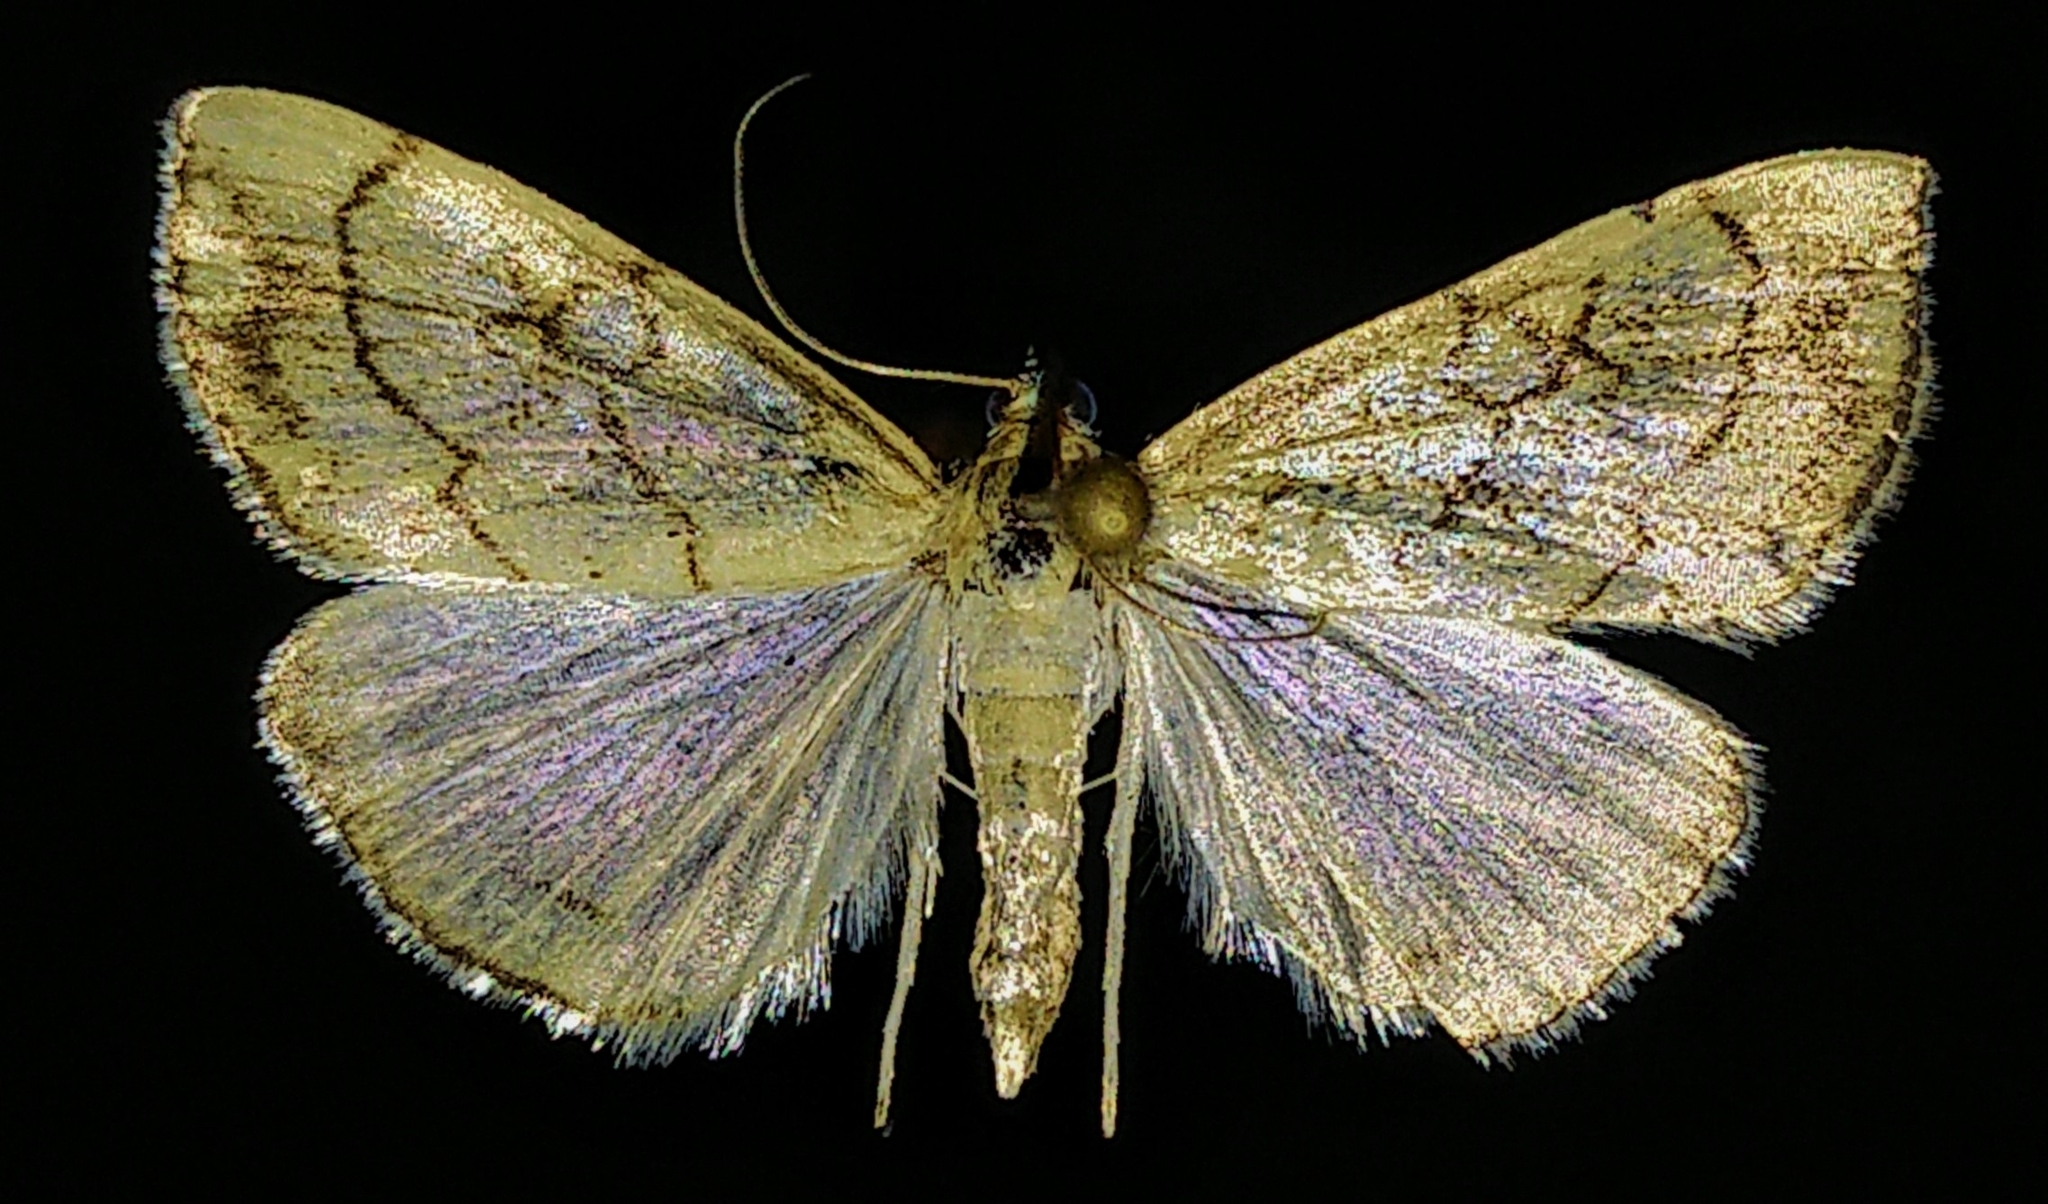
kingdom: Animalia
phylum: Arthropoda
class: Insecta
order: Lepidoptera
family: Crambidae
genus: Evergestis
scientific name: Evergestis pallidata
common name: Chequered pearl
